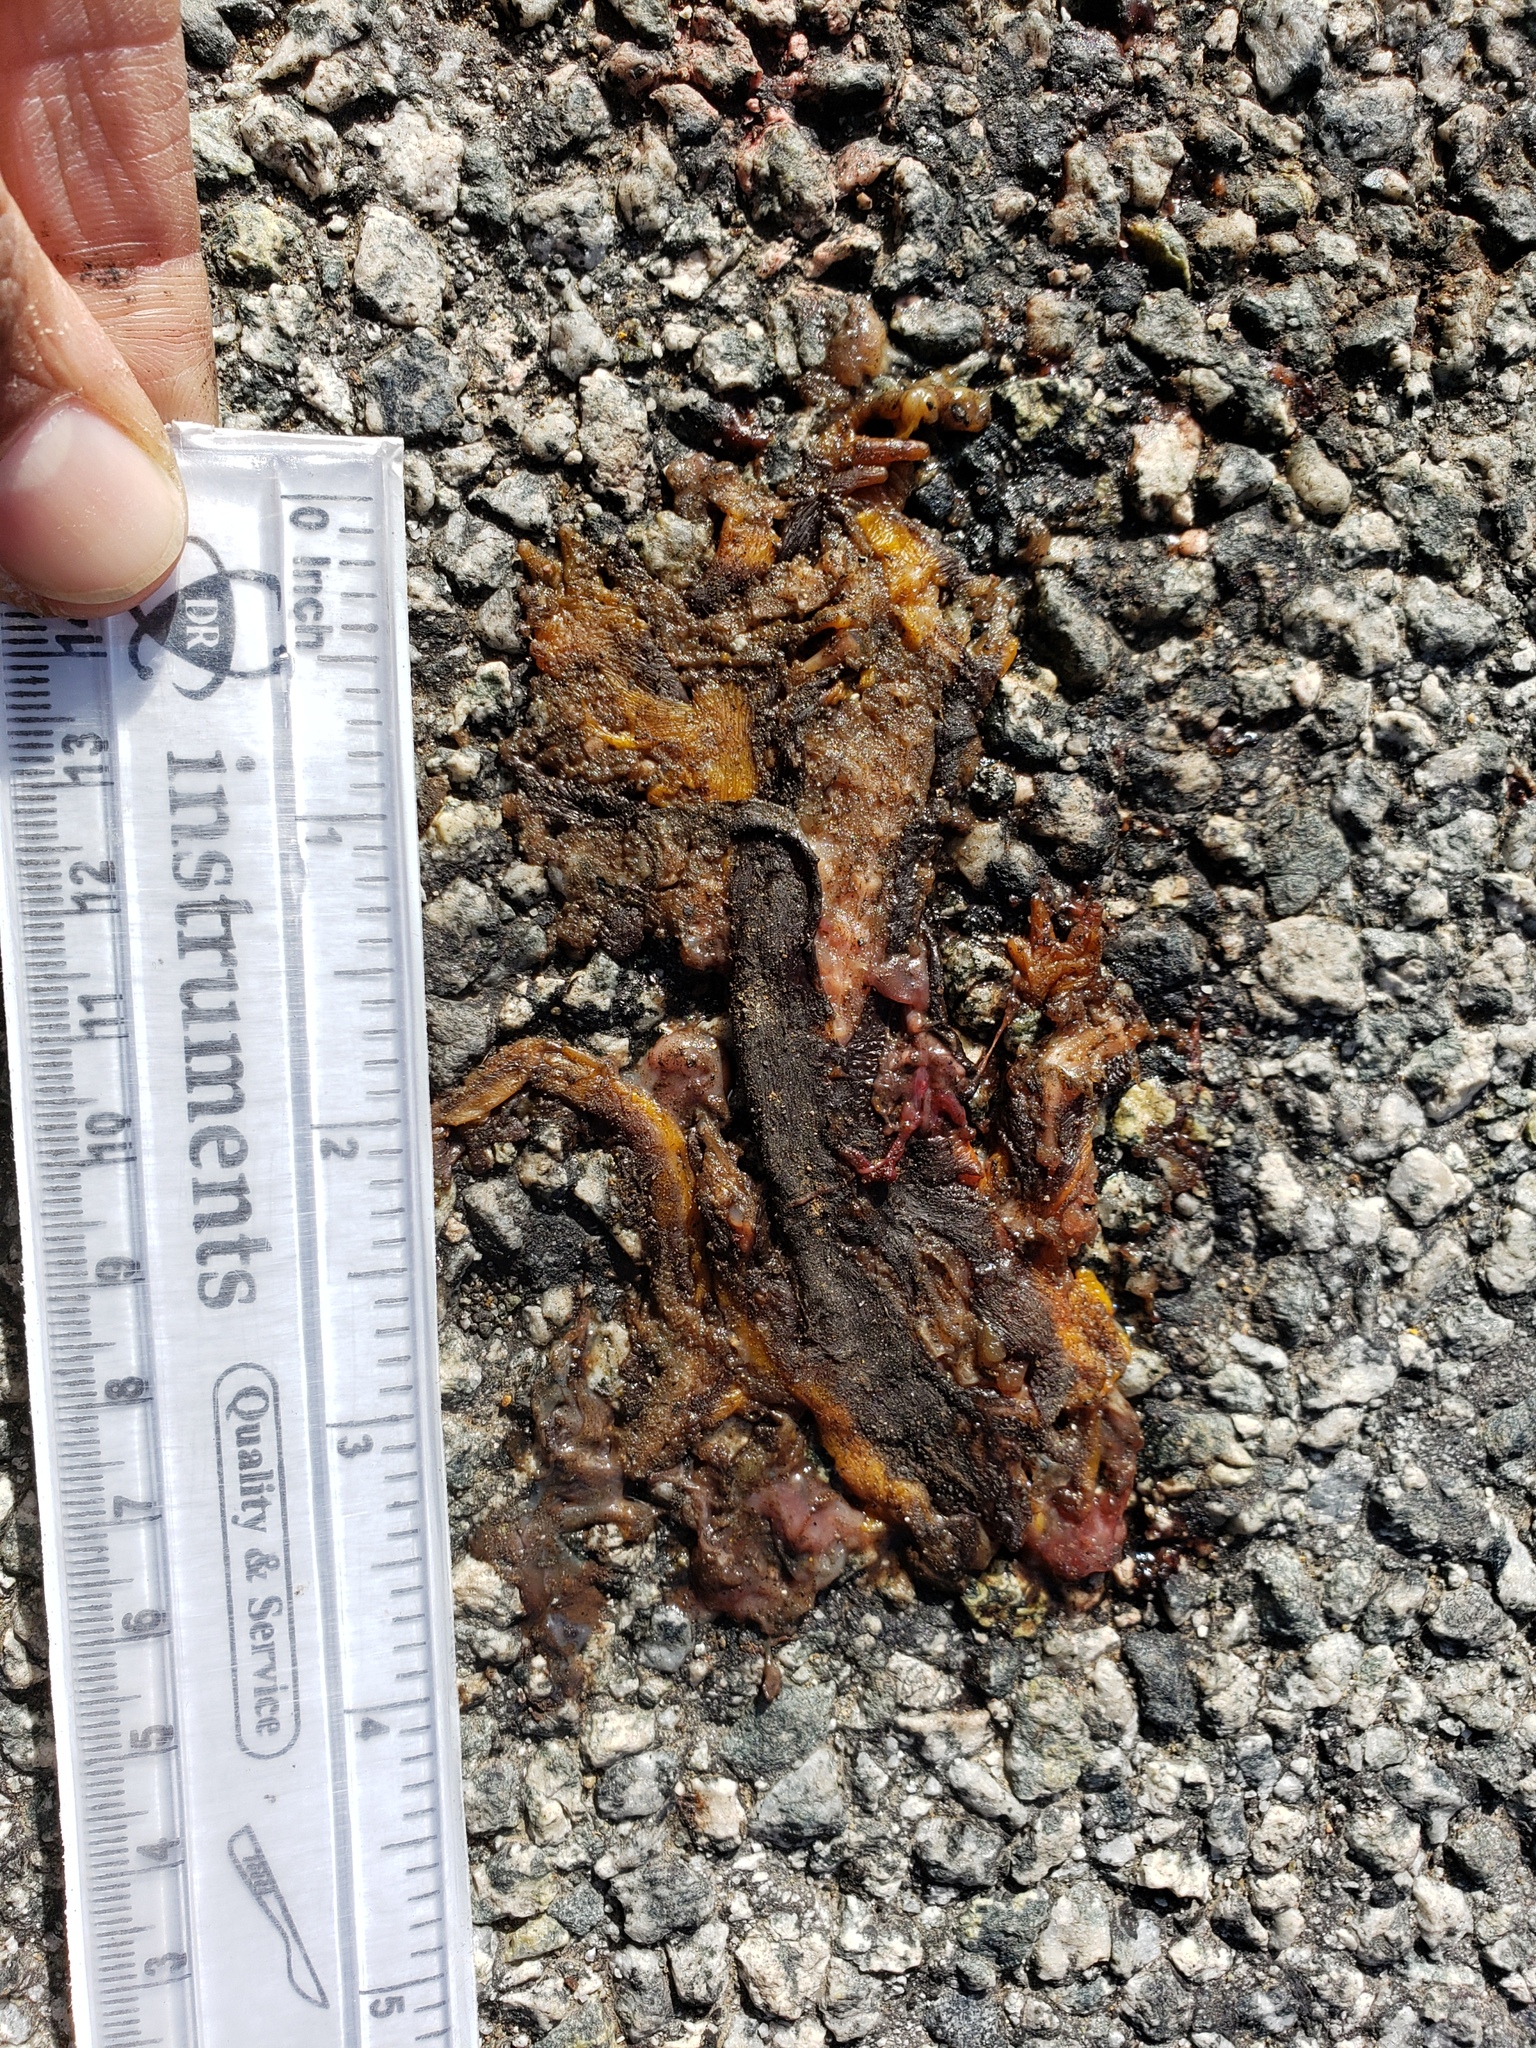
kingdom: Animalia
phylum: Chordata
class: Amphibia
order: Caudata
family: Salamandridae
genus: Taricha
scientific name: Taricha
